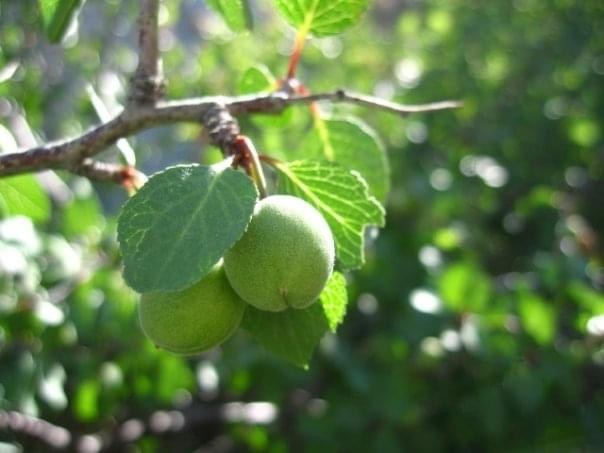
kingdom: Plantae
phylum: Tracheophyta
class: Magnoliopsida
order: Rosales
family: Rosaceae
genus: Prunus
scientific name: Prunus fremontii
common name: Desert apricot
